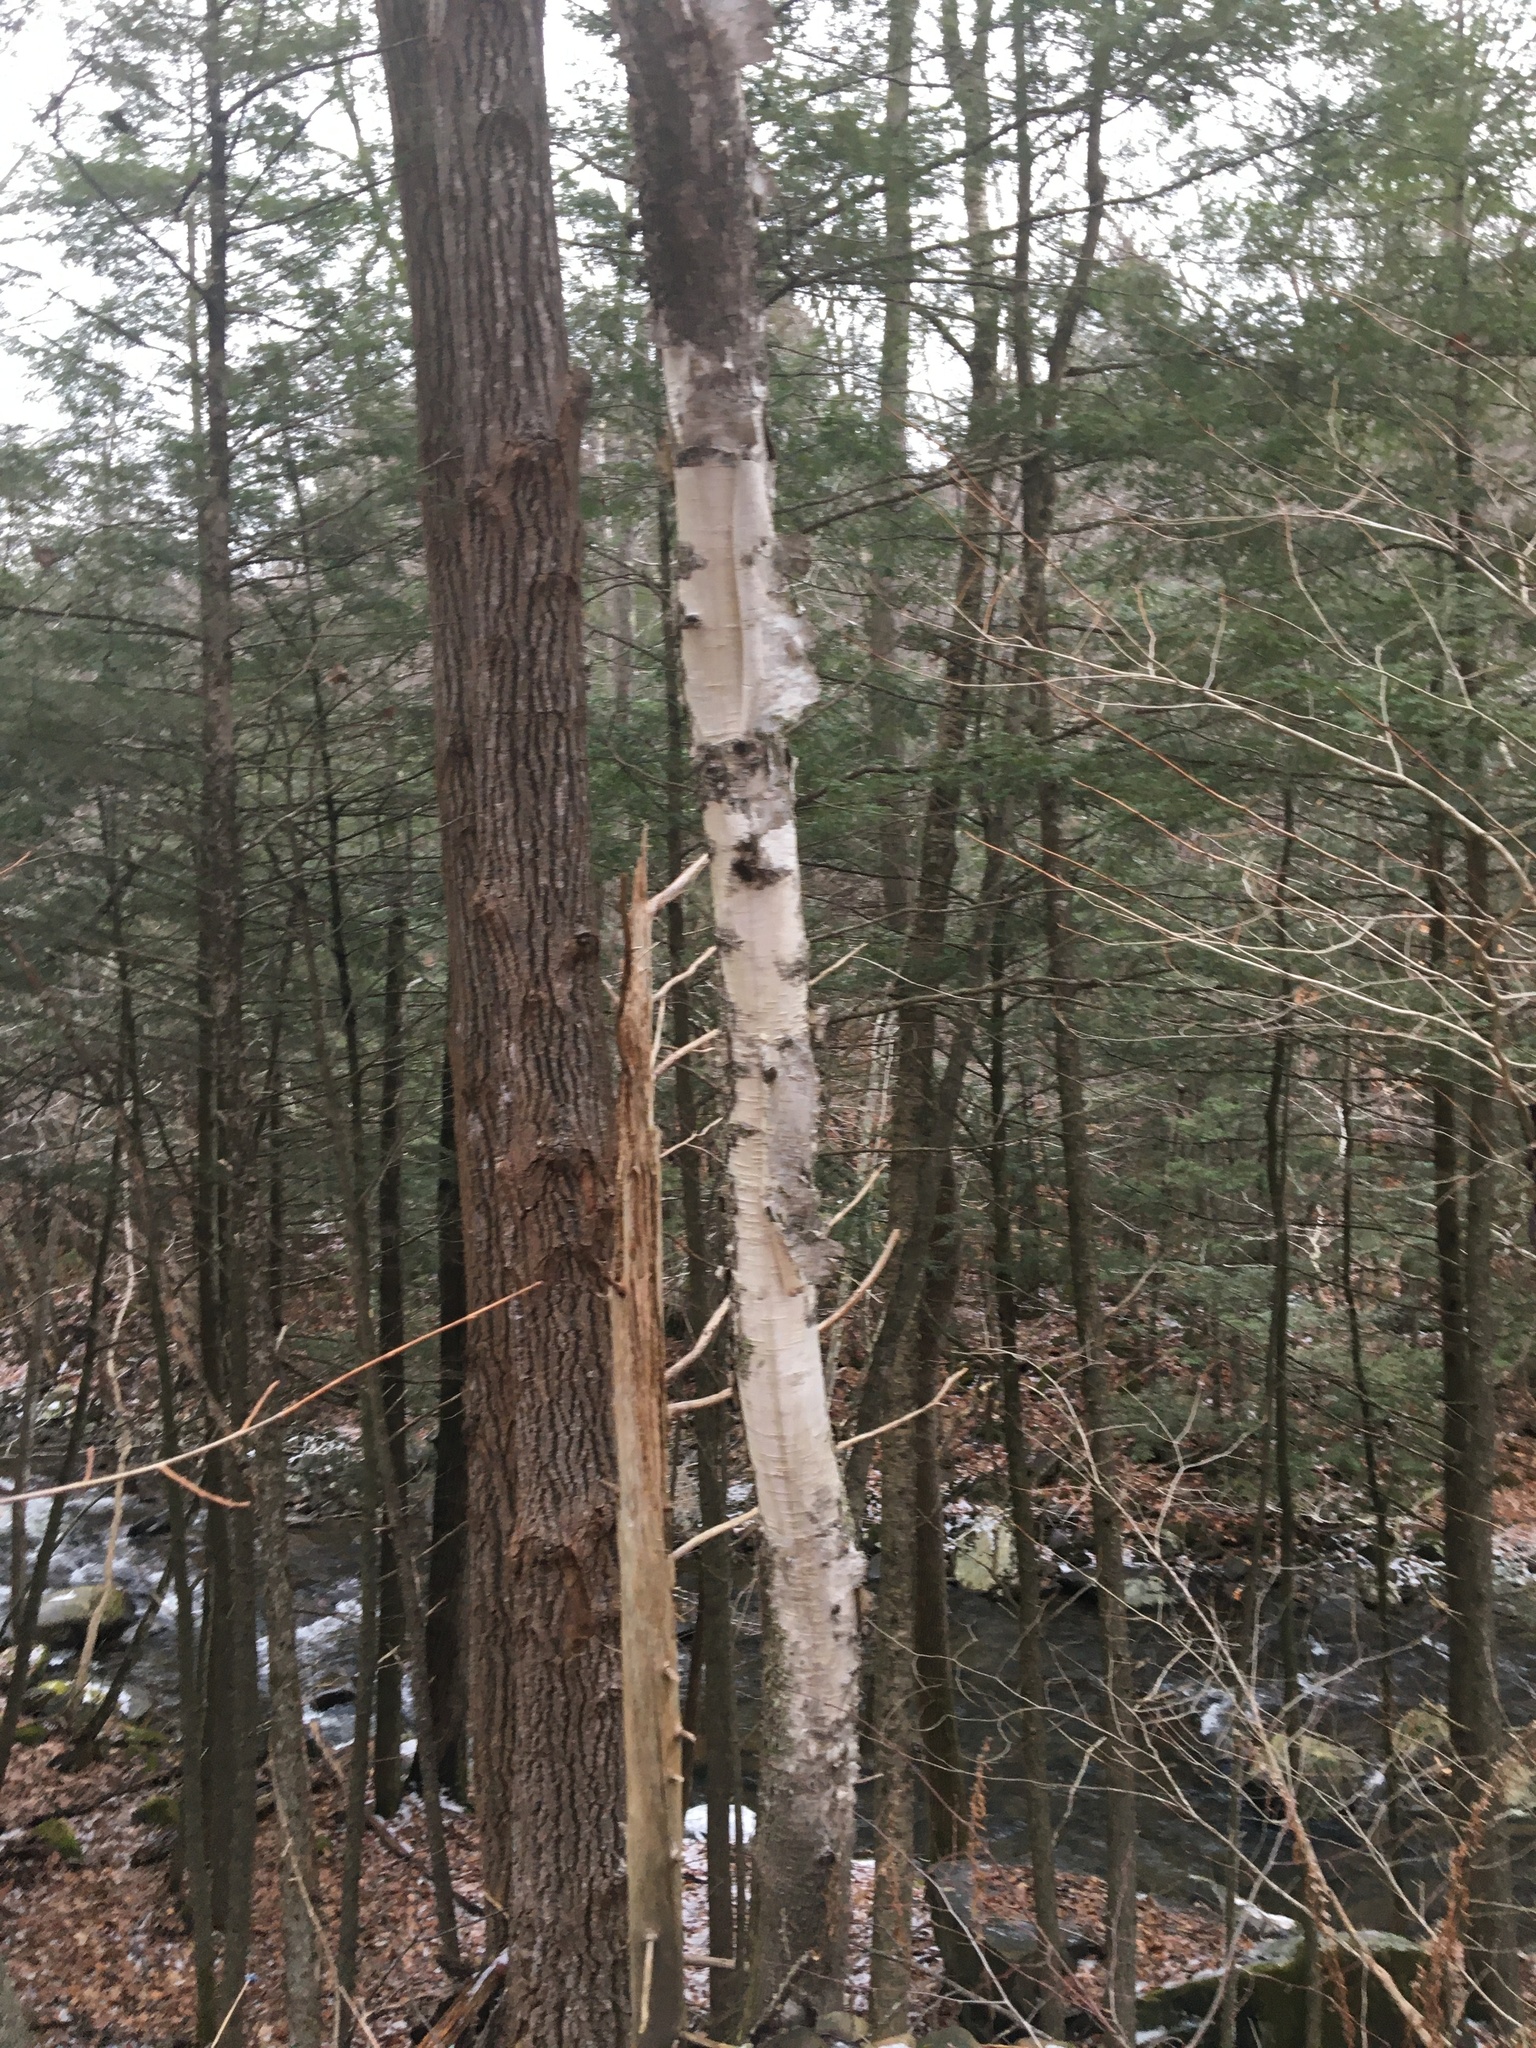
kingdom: Plantae
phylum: Tracheophyta
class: Magnoliopsida
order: Fagales
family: Betulaceae
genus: Betula
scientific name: Betula papyrifera
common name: Paper birch
